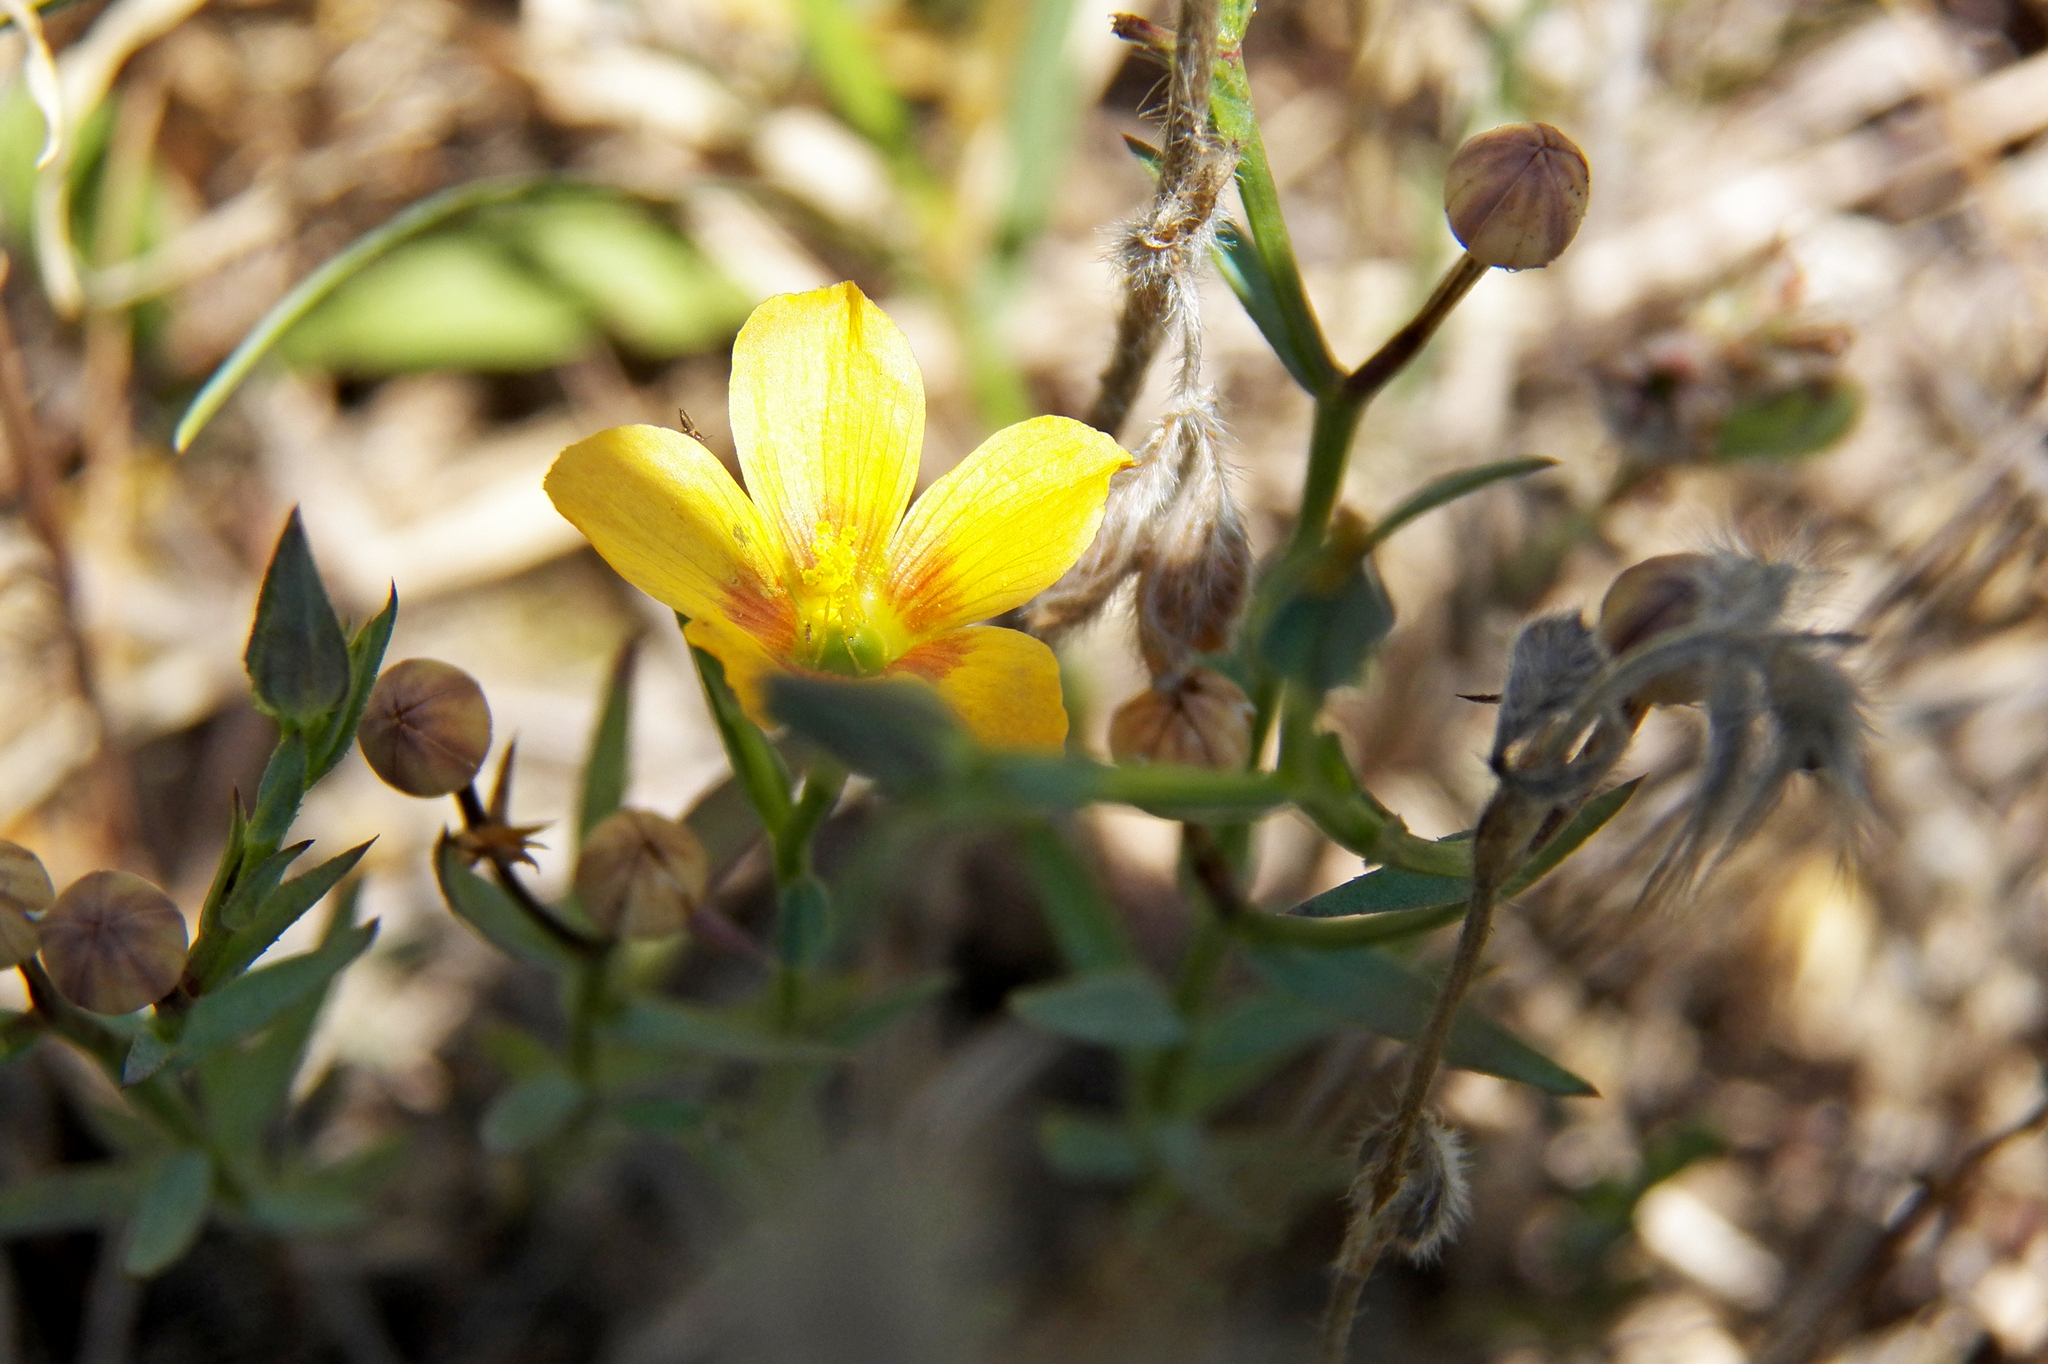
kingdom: Plantae
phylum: Tracheophyta
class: Magnoliopsida
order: Malpighiales
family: Linaceae
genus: Linum
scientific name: Linum berlandieri
